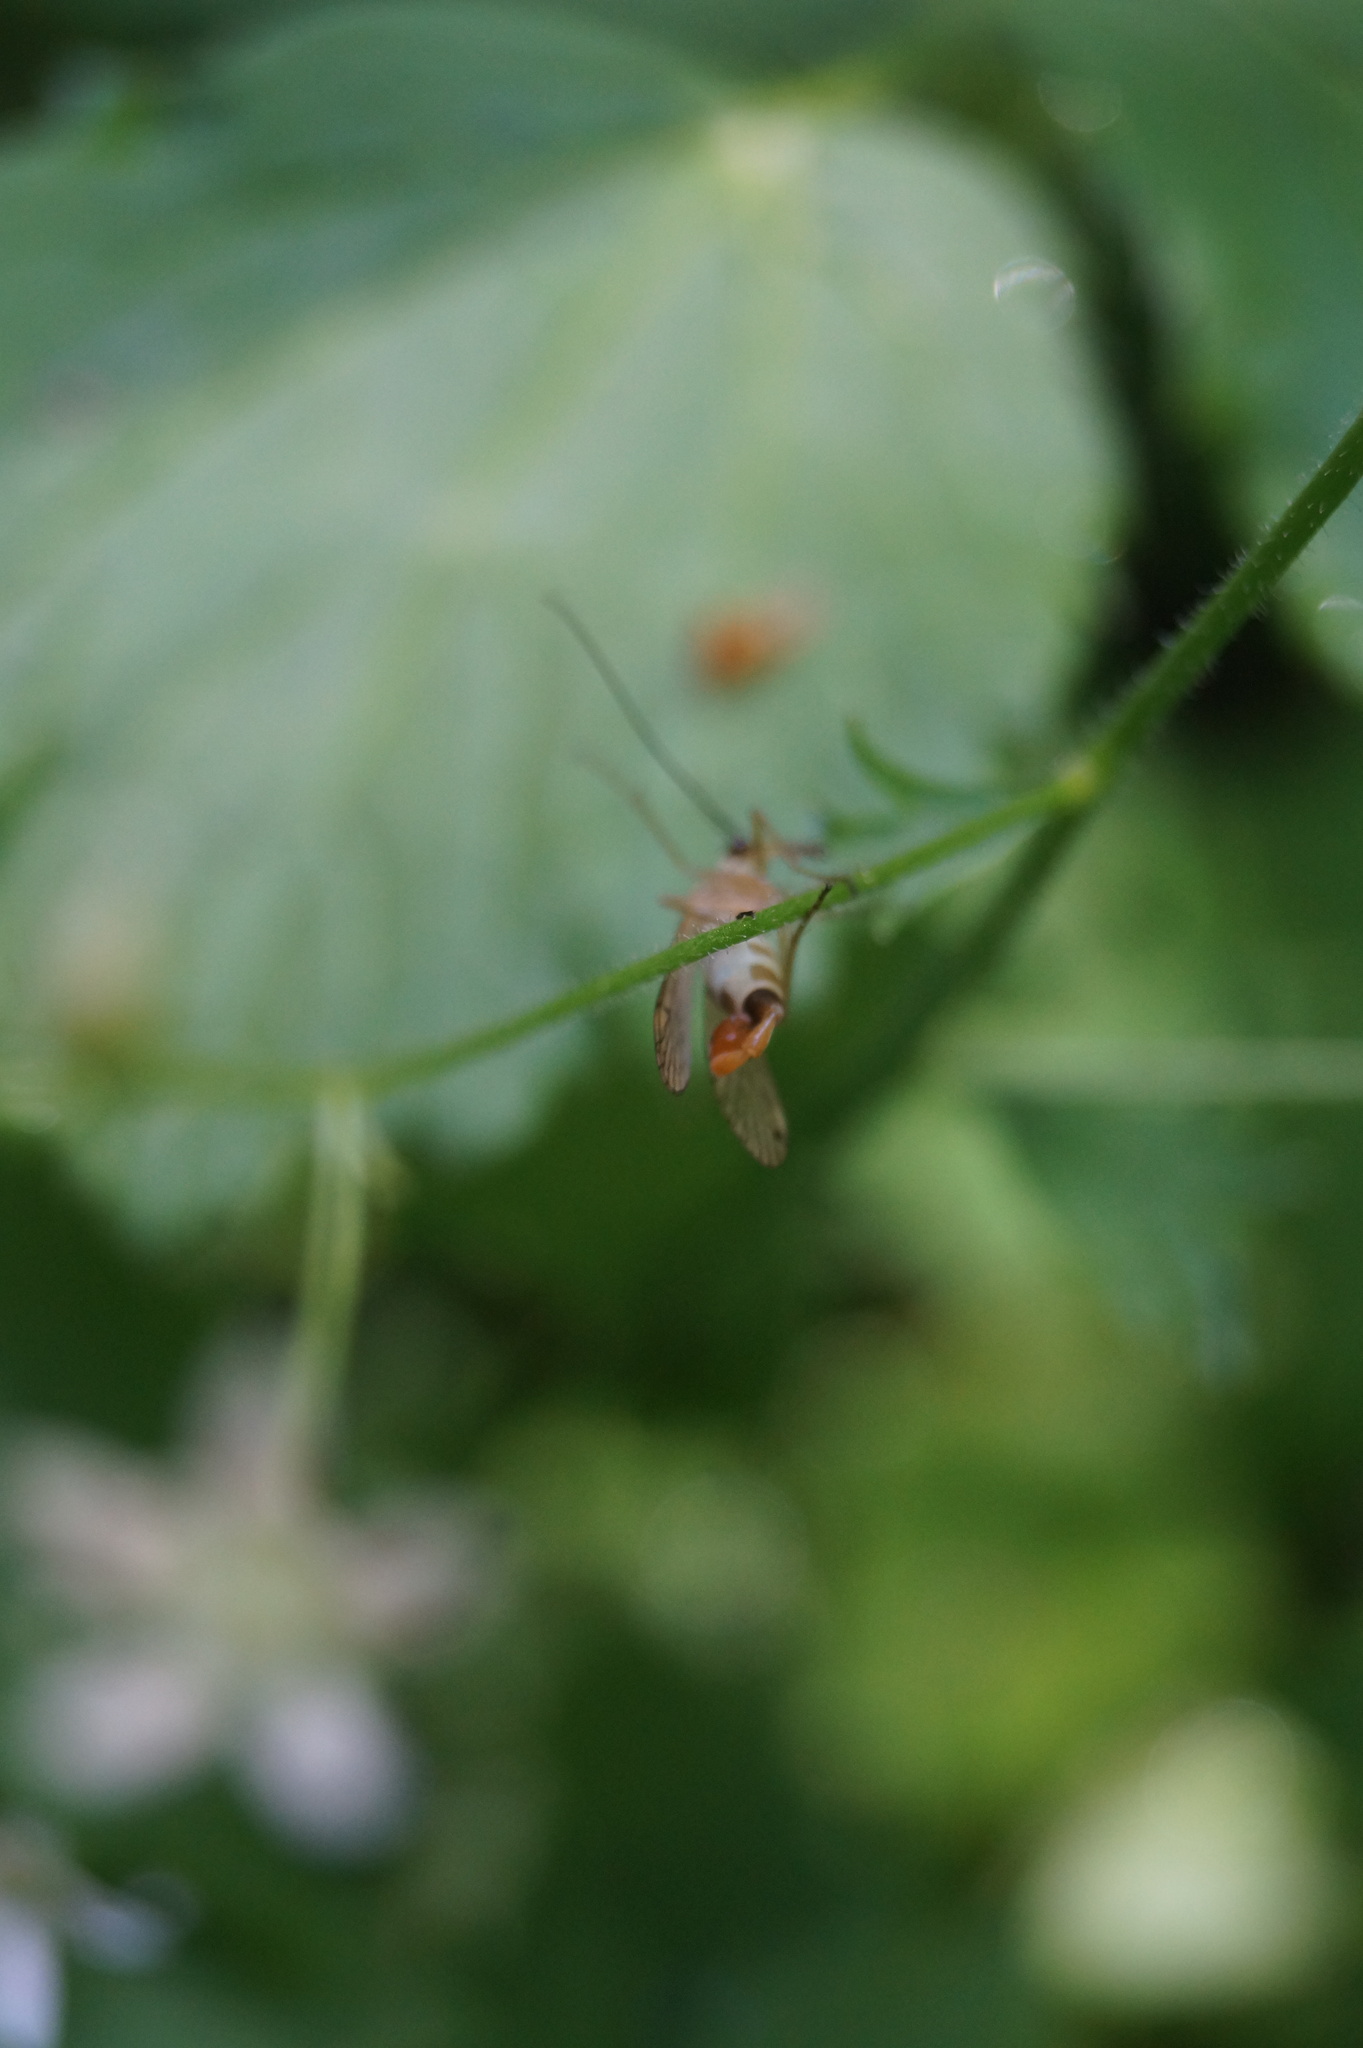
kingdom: Animalia
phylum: Arthropoda
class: Insecta
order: Mecoptera
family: Panorpidae
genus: Panorpa
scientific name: Panorpa alpina
